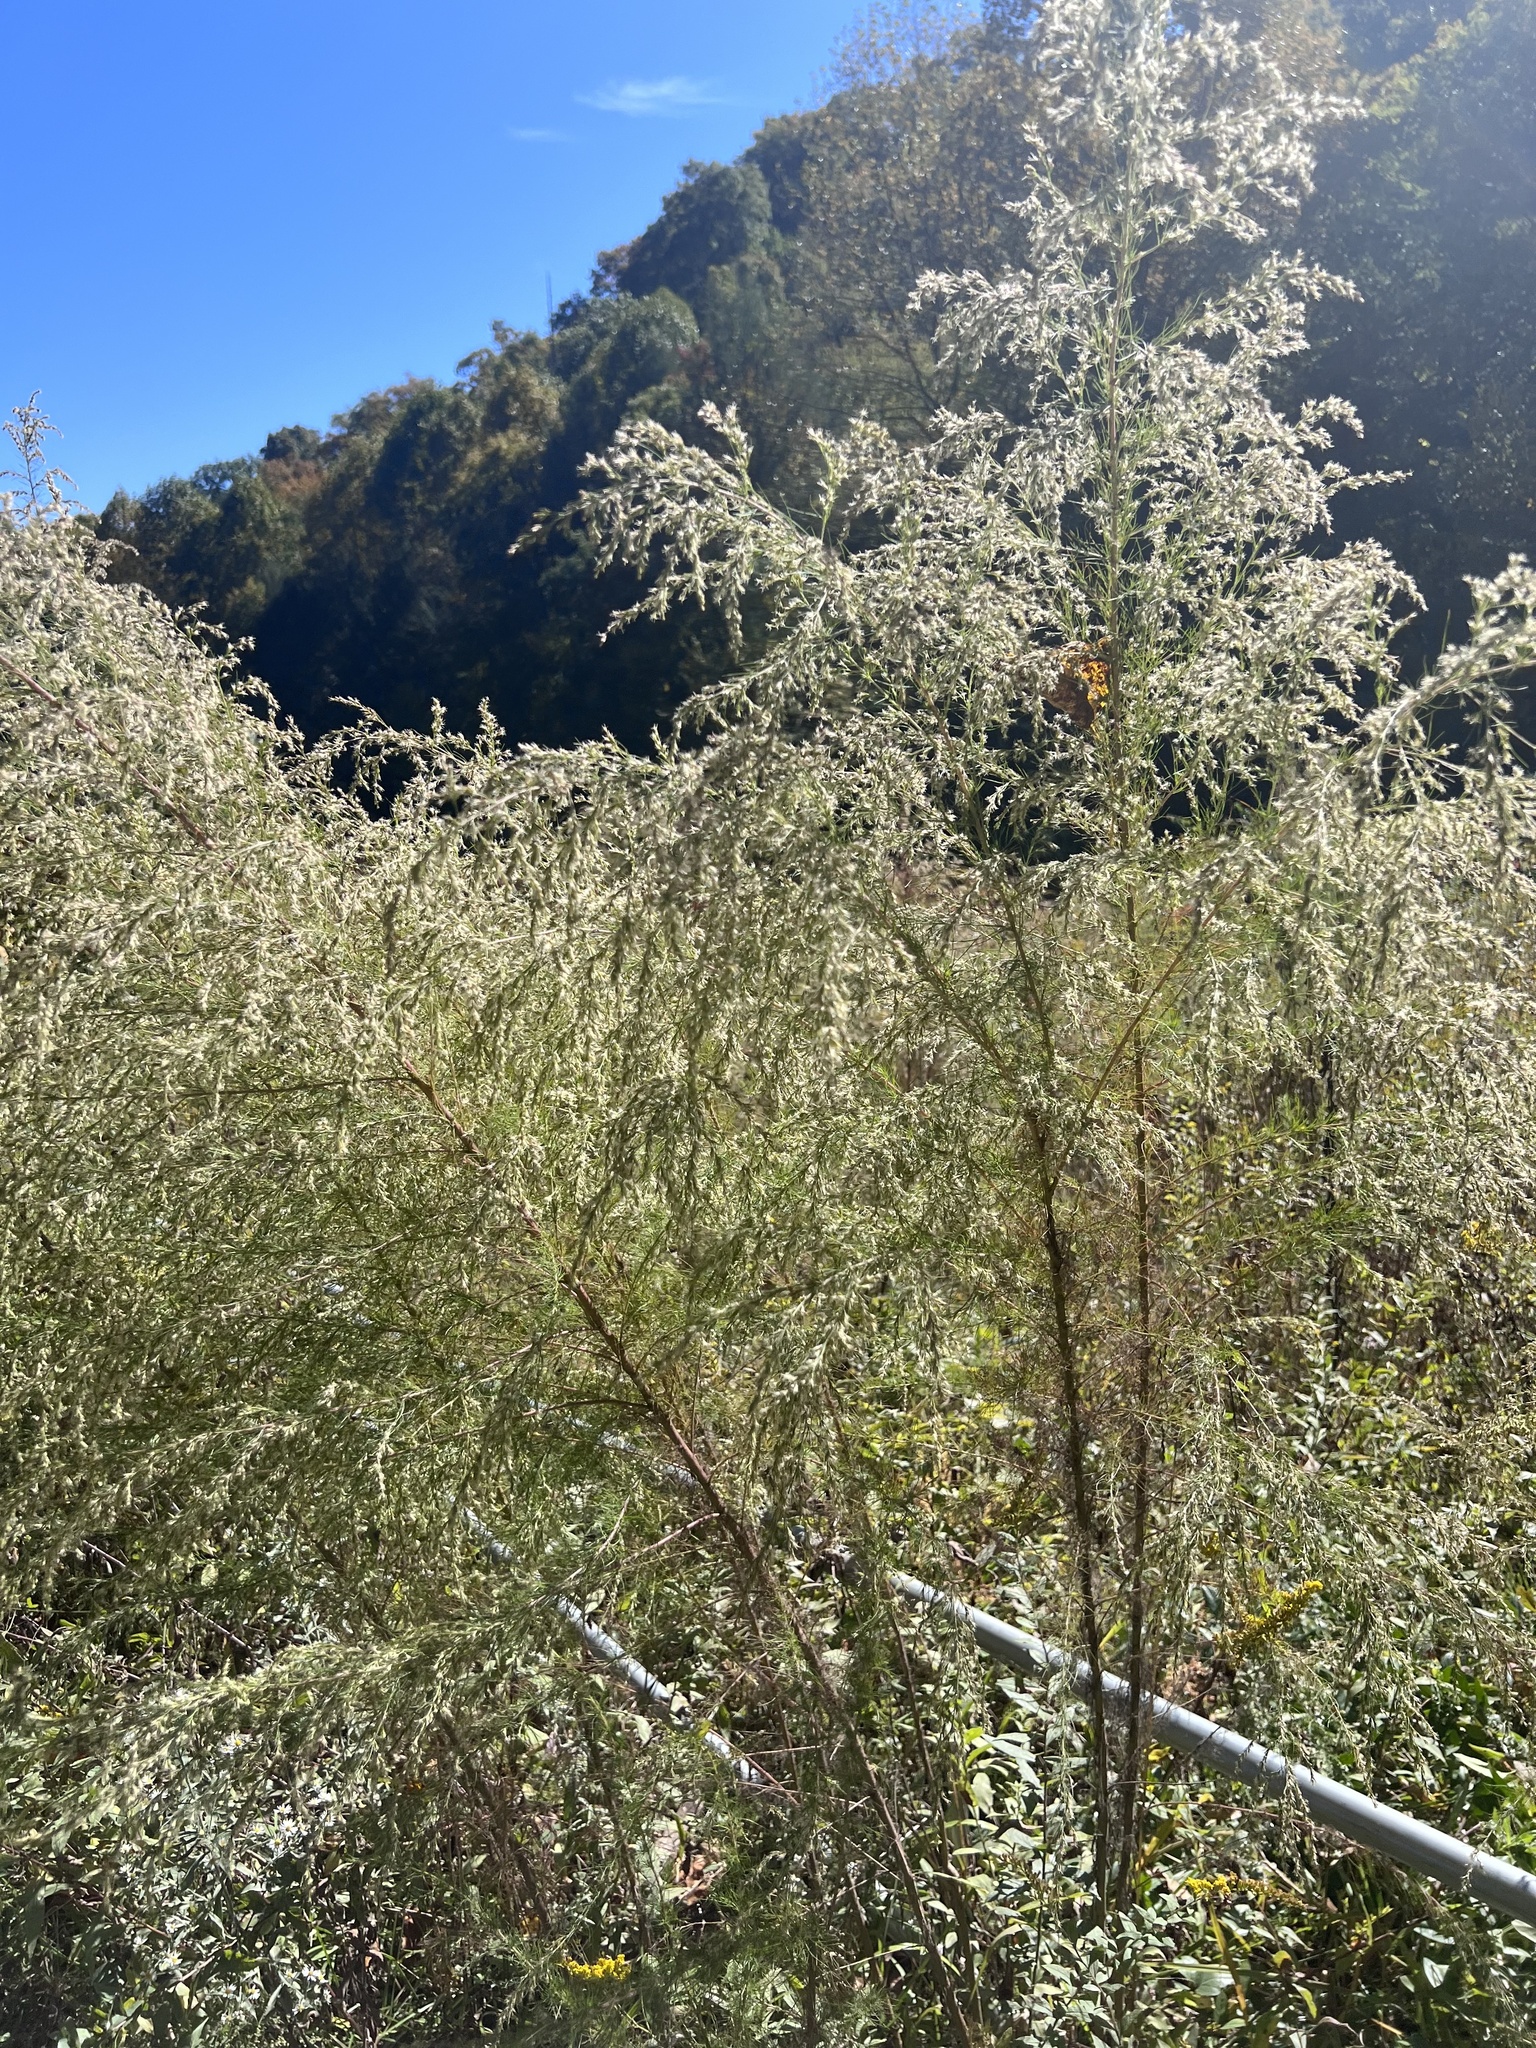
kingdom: Plantae
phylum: Tracheophyta
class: Magnoliopsida
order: Asterales
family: Asteraceae
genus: Eupatorium
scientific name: Eupatorium capillifolium
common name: Dog-fennel
